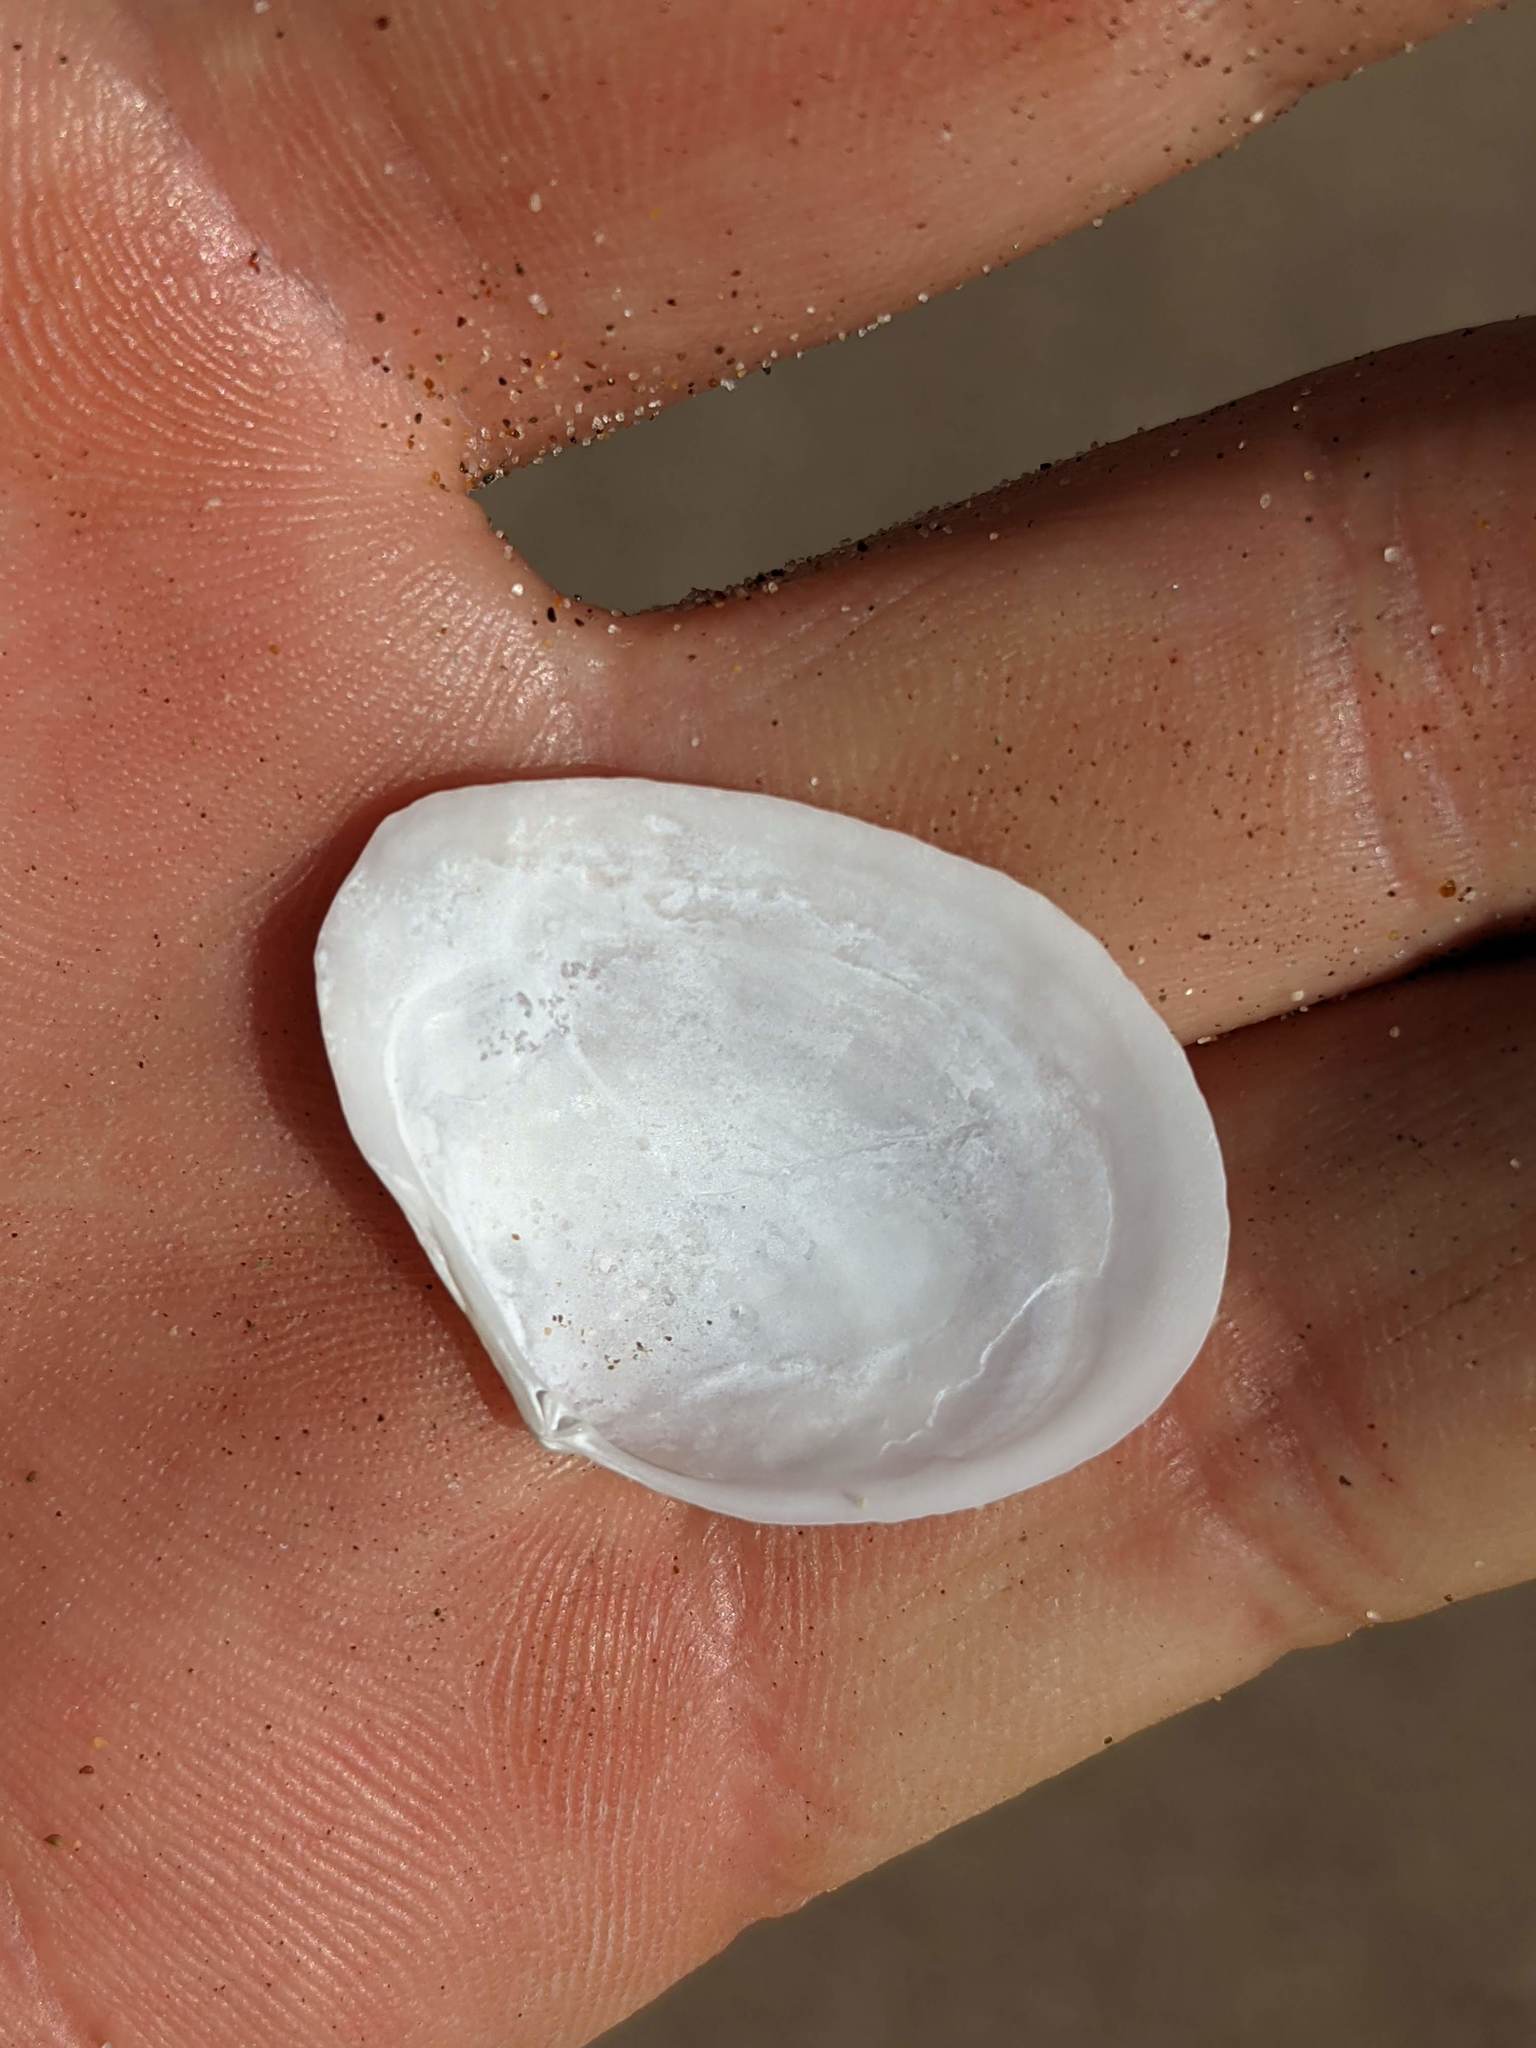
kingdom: Animalia
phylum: Mollusca
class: Bivalvia
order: Cardiida
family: Tellinidae
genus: Macoma
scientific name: Macoma nasuta
